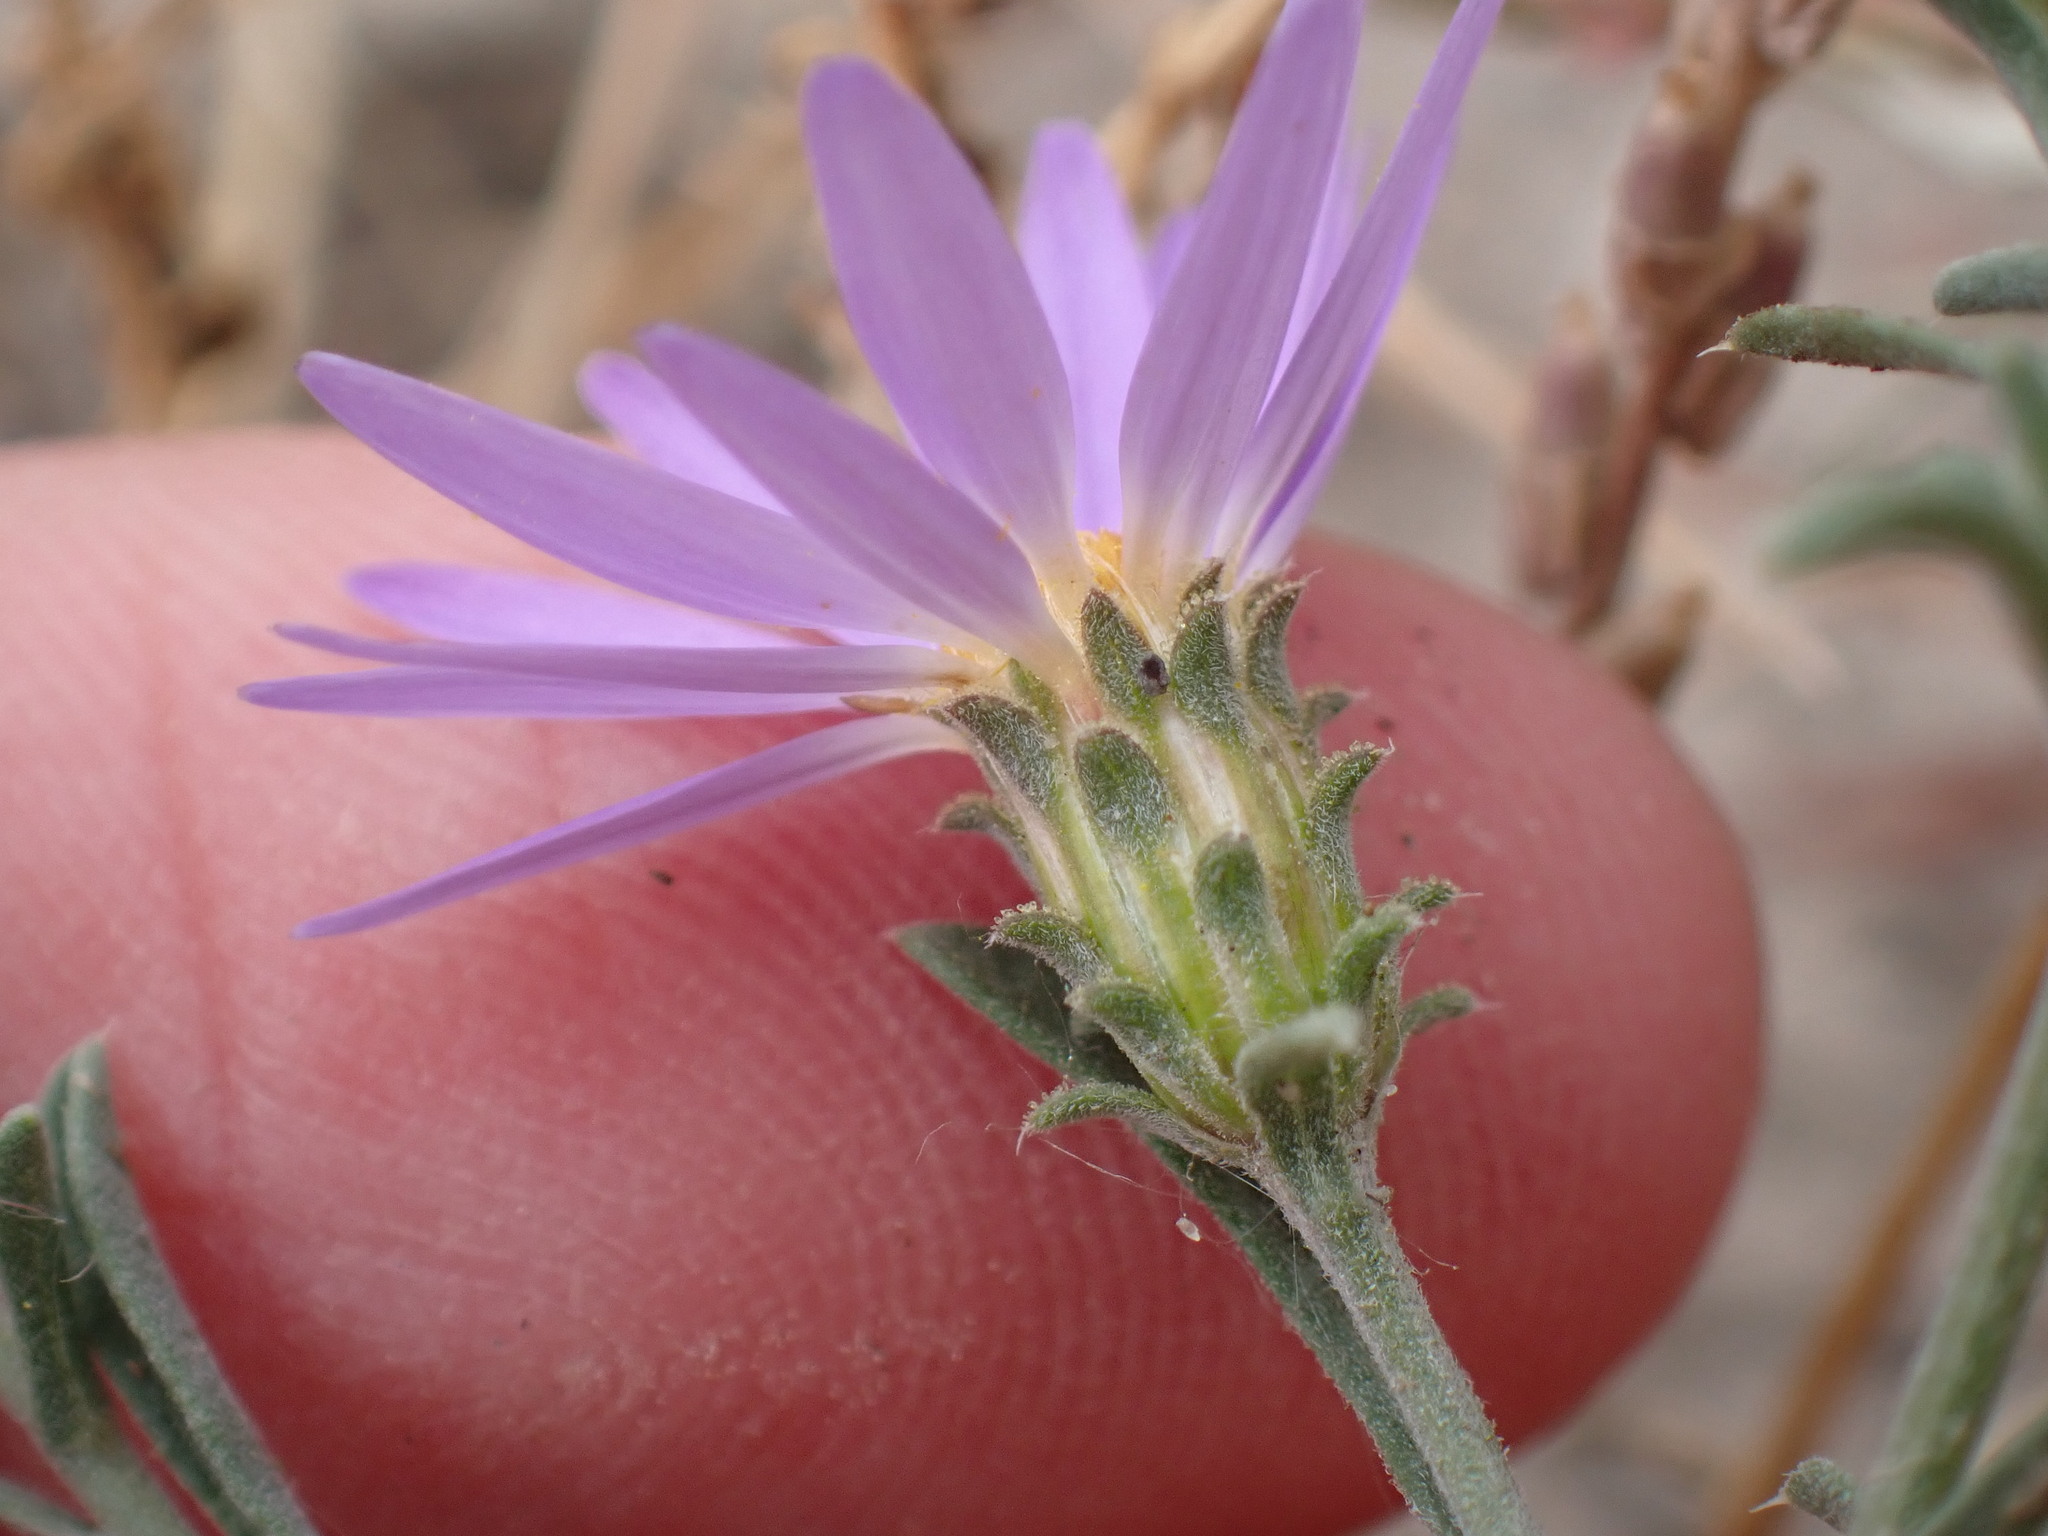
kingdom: Plantae
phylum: Tracheophyta
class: Magnoliopsida
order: Asterales
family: Asteraceae
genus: Dieteria
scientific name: Dieteria canescens
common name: Hoary-aster
